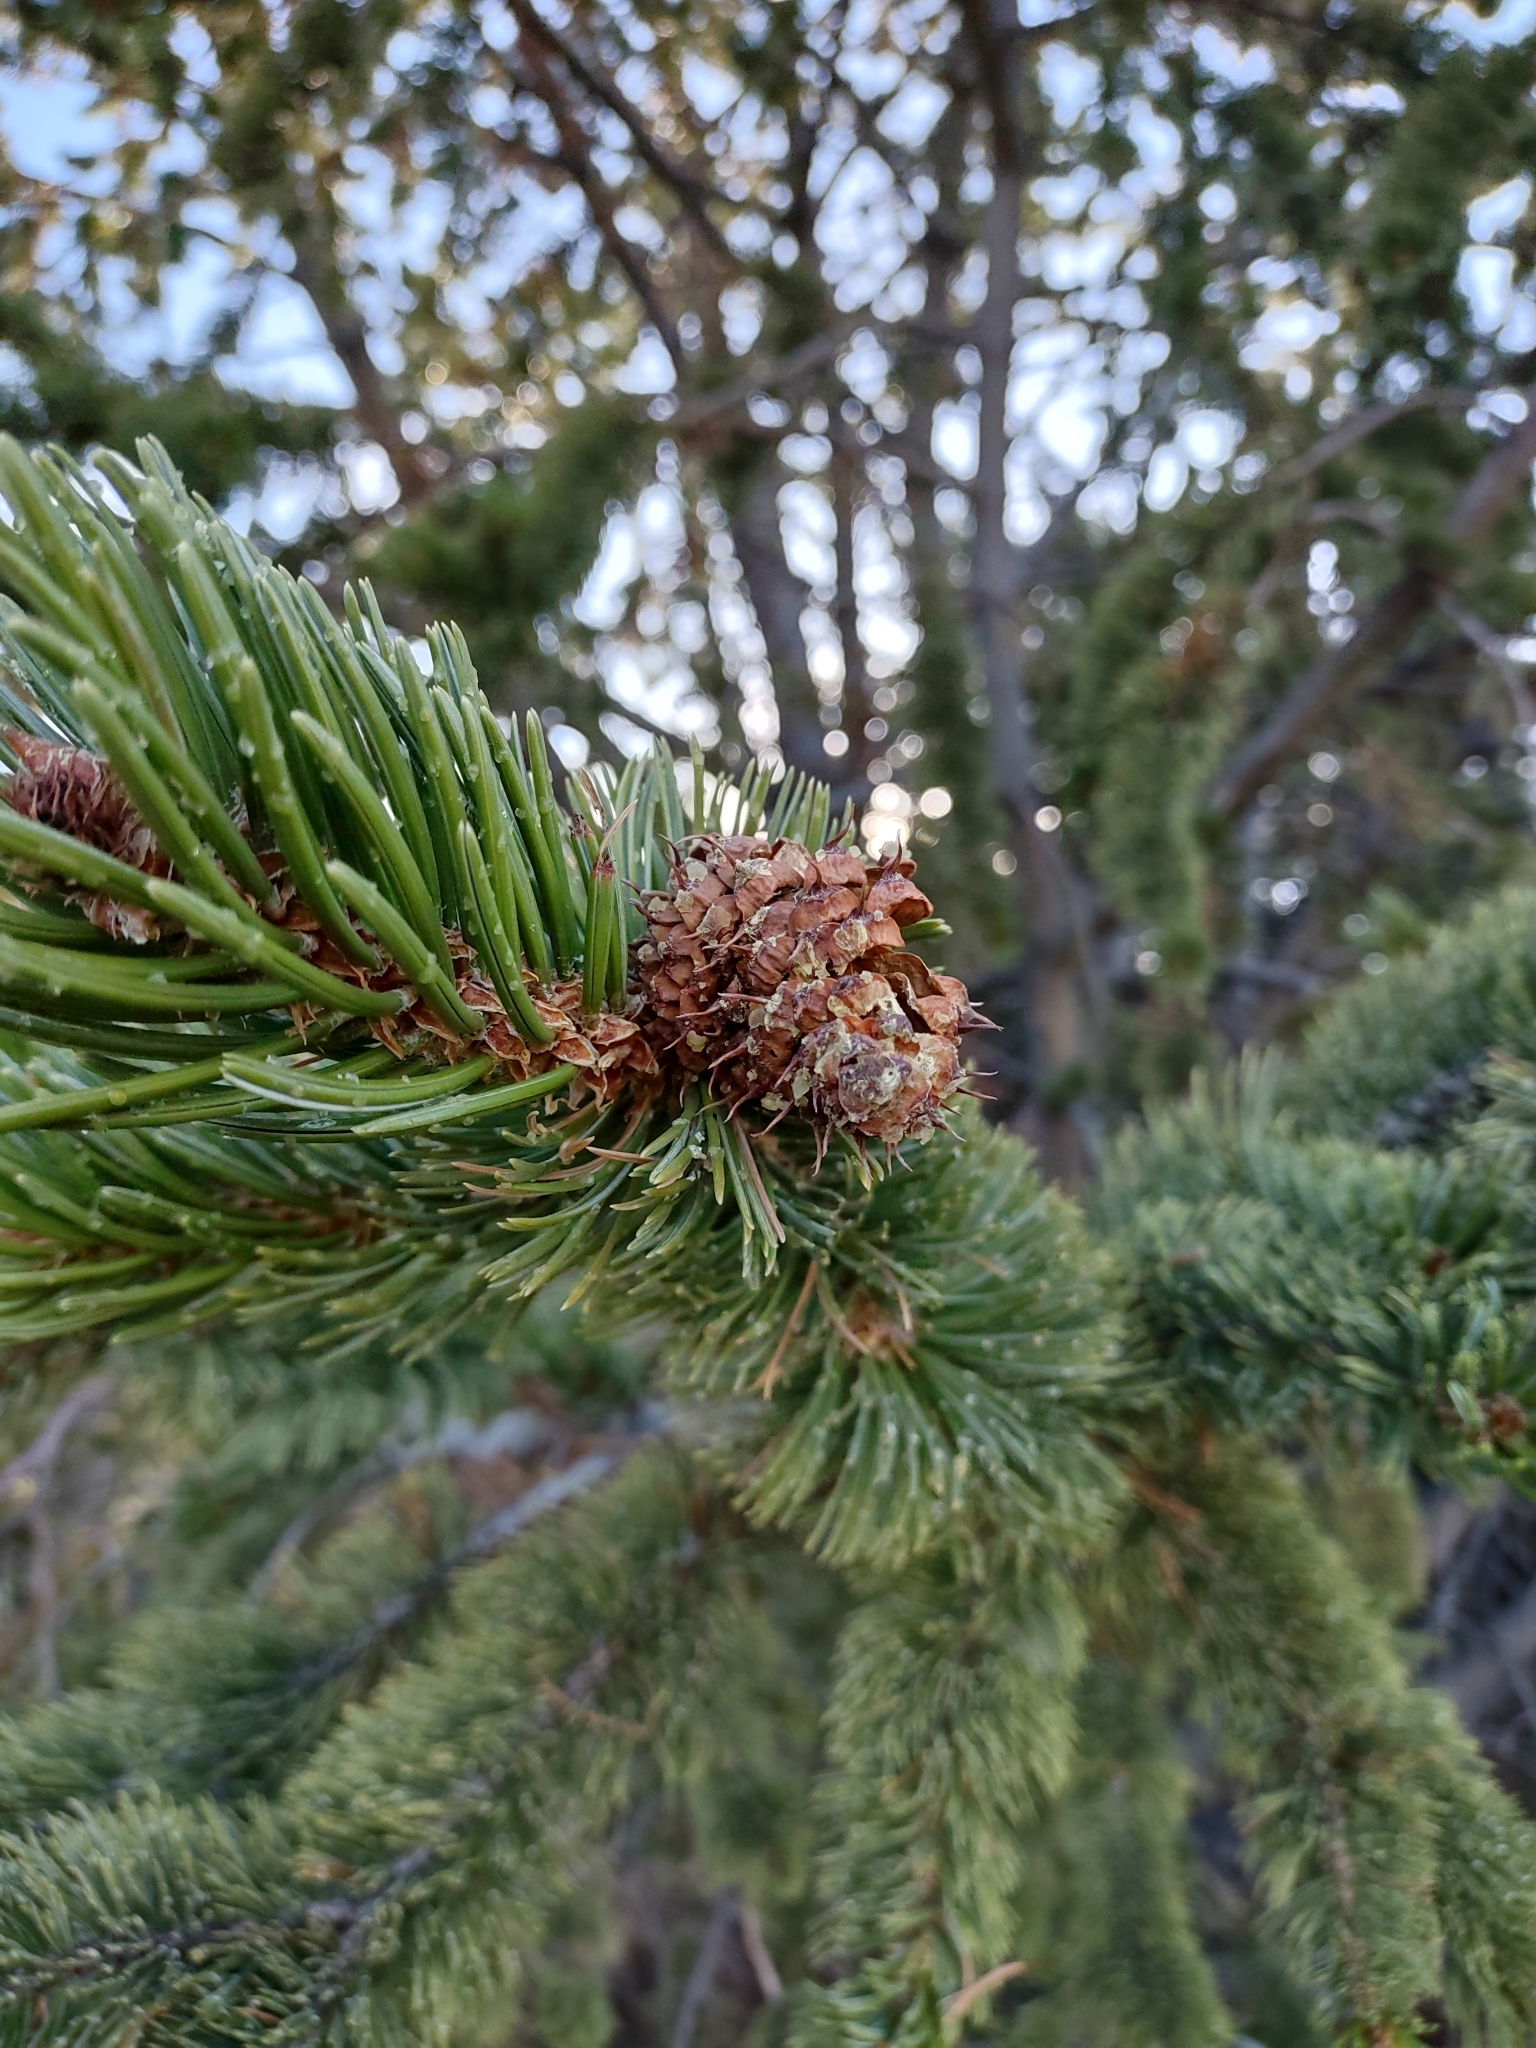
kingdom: Plantae
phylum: Tracheophyta
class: Pinopsida
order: Pinales
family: Pinaceae
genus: Pinus
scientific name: Pinus aristata
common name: Colorado bristlecone pine
